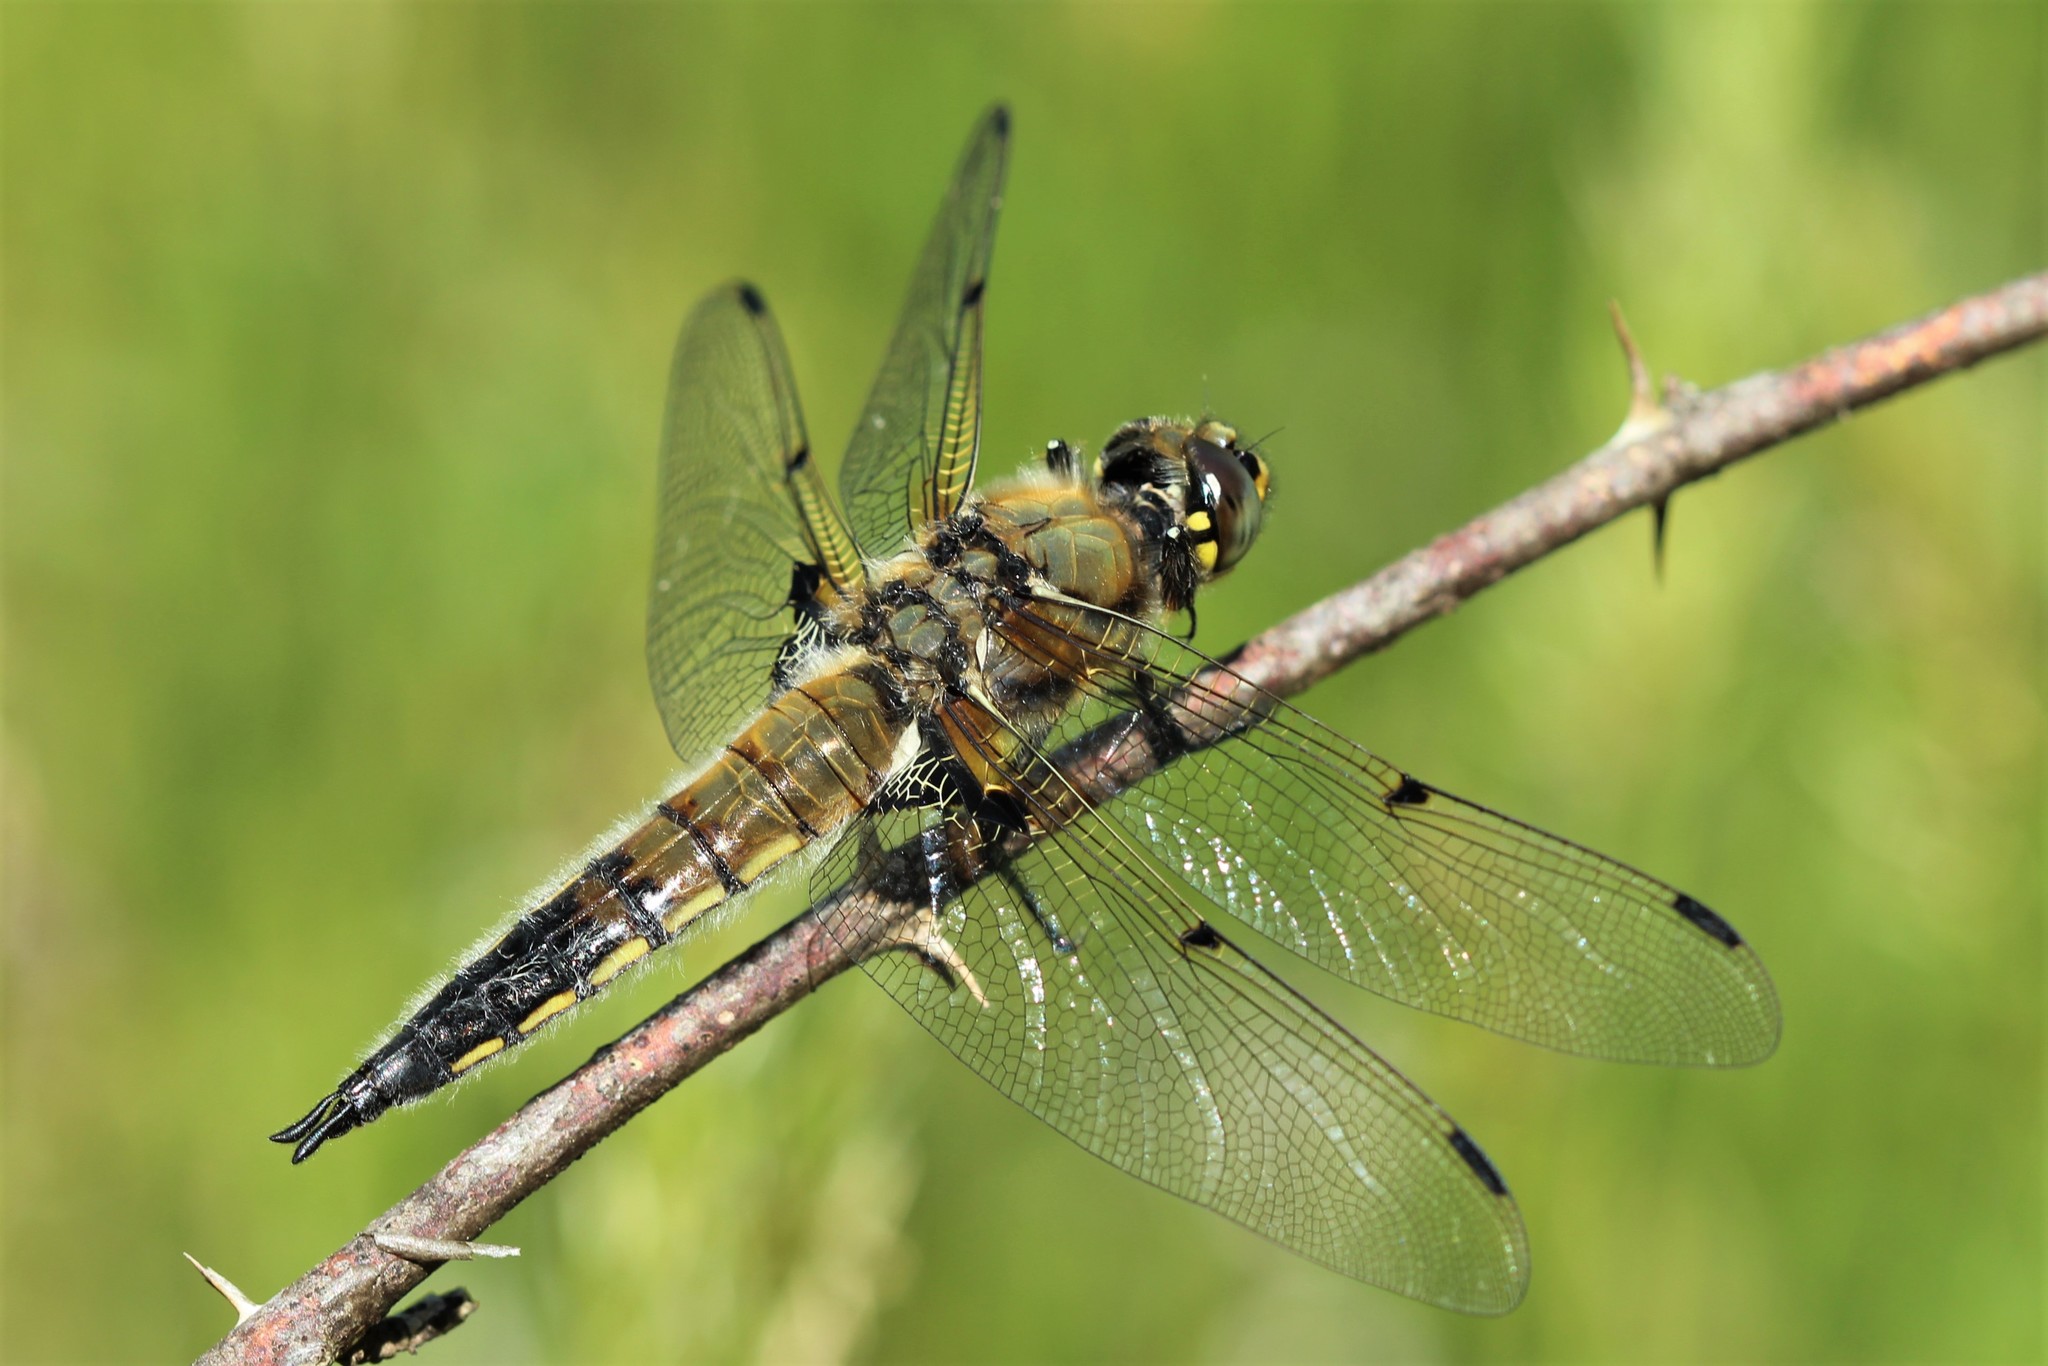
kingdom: Animalia
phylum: Arthropoda
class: Insecta
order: Odonata
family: Libellulidae
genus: Libellula
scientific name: Libellula quadrimaculata
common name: Four-spotted chaser
